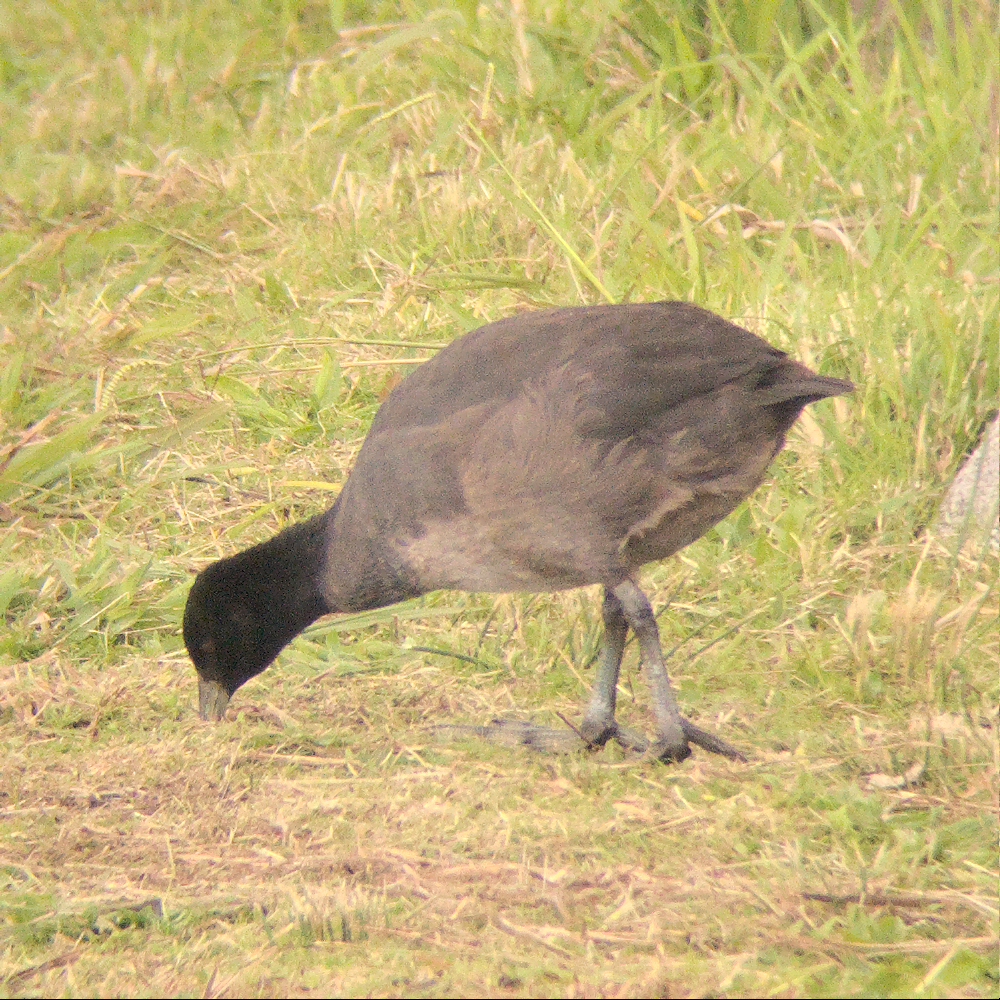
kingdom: Animalia
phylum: Chordata
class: Aves
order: Gruiformes
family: Rallidae
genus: Fulica
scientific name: Fulica atra
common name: Eurasian coot
